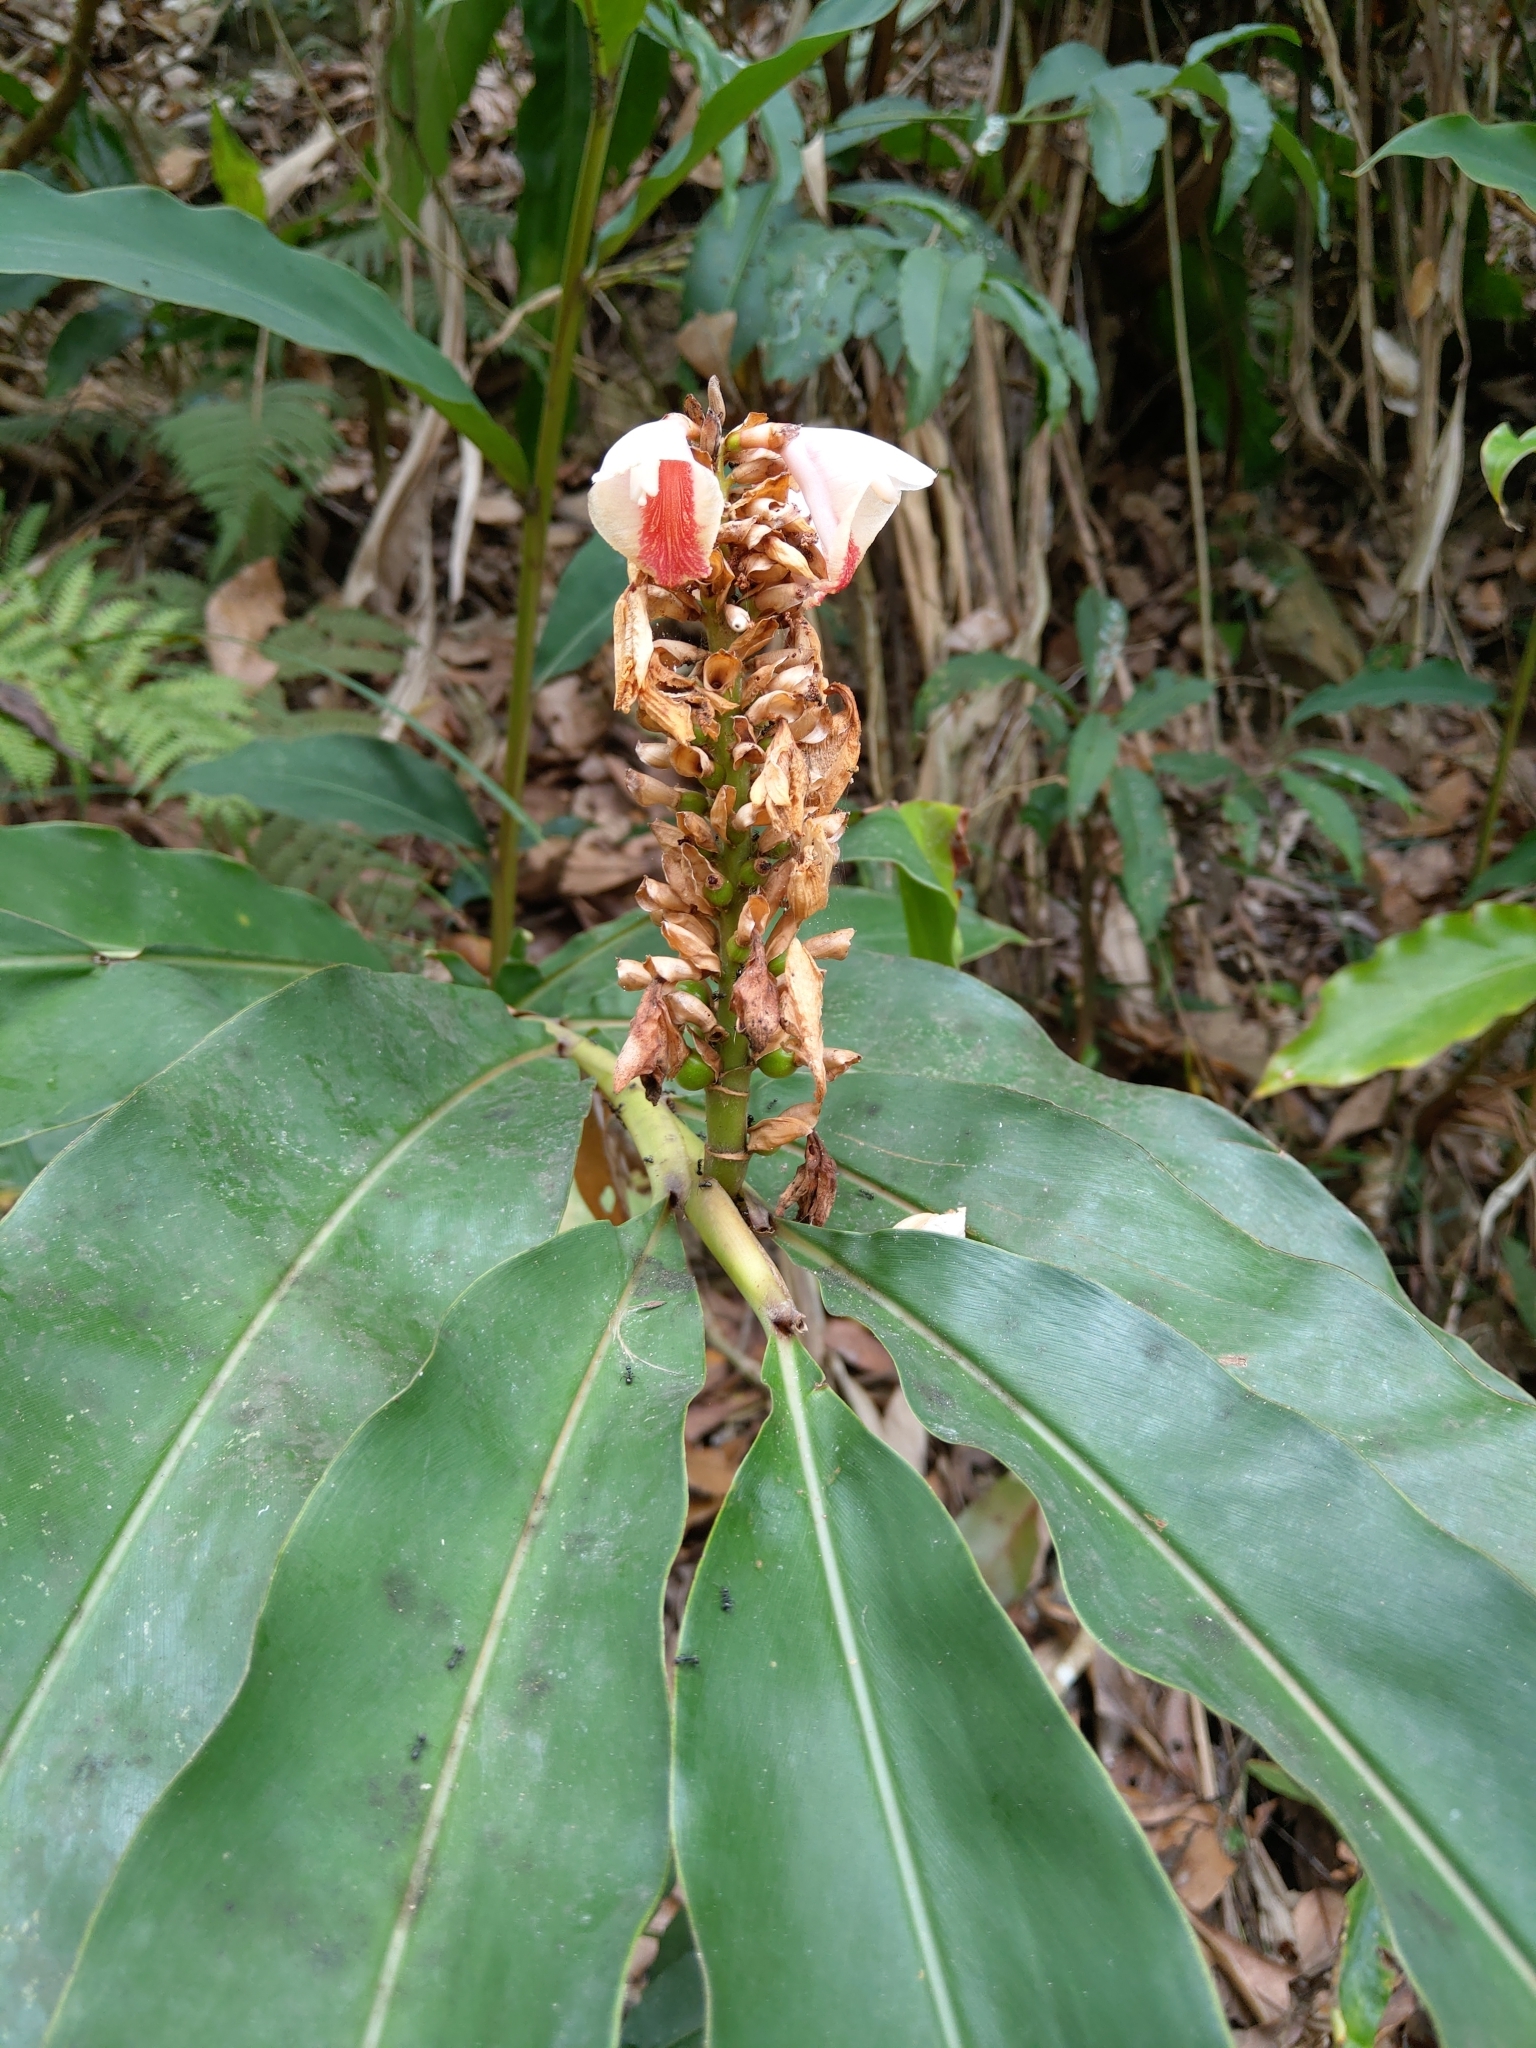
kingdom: Plantae
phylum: Tracheophyta
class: Liliopsida
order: Zingiberales
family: Zingiberaceae
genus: Alpinia
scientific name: Alpinia shimadae
